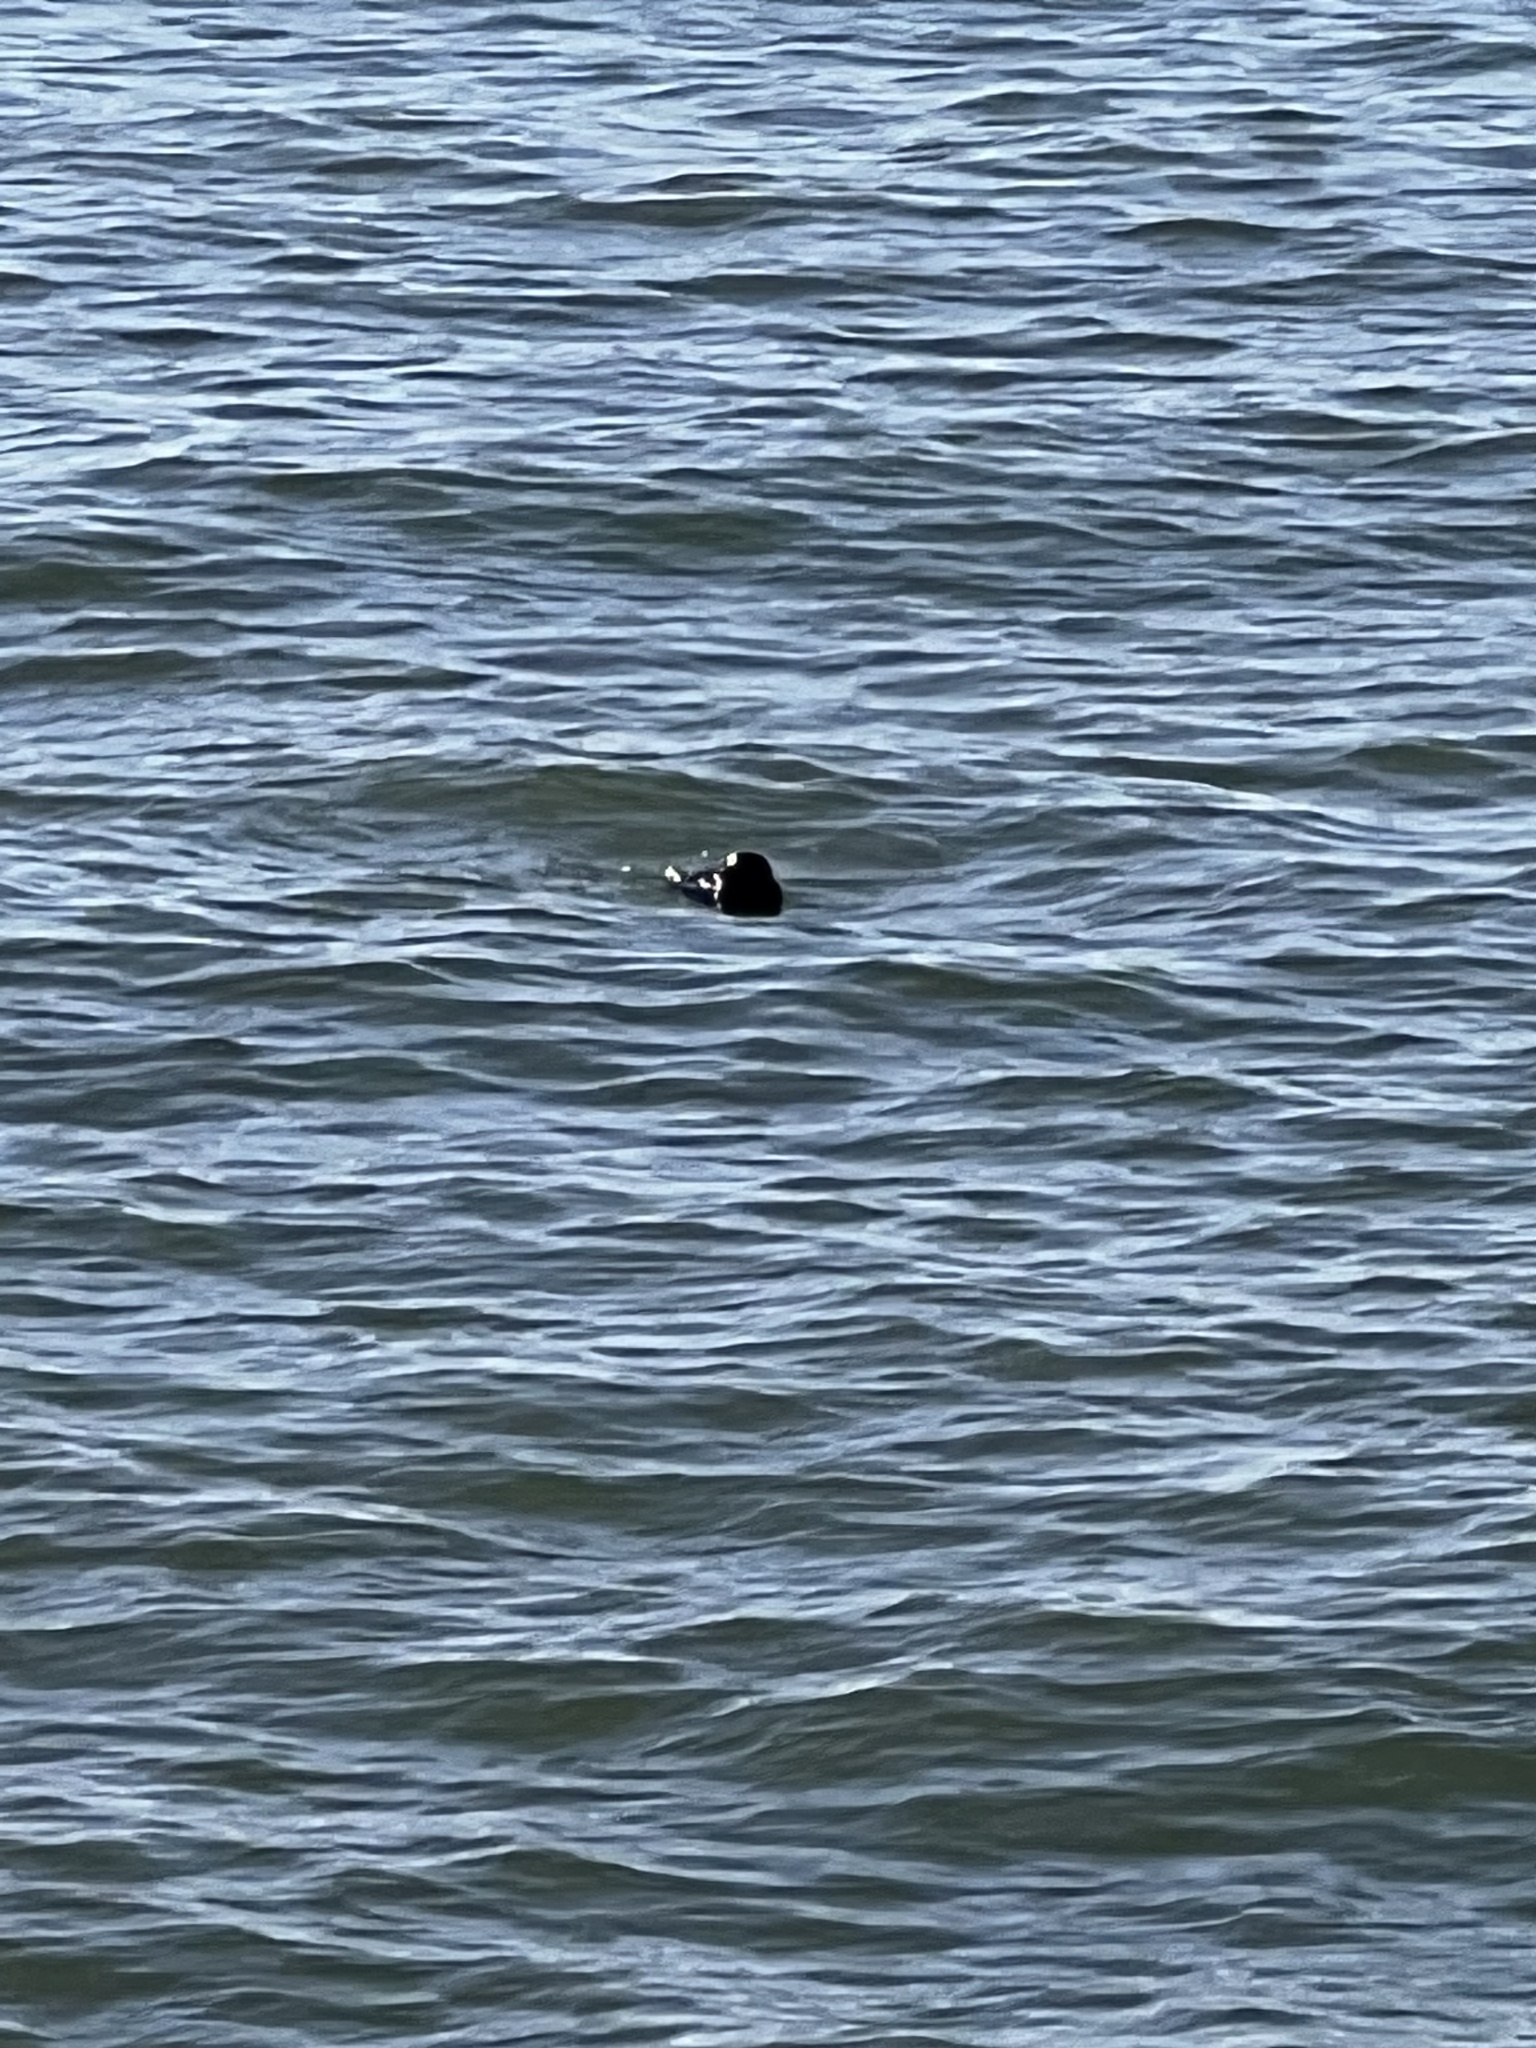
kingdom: Animalia
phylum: Chordata
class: Mammalia
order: Carnivora
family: Mustelidae
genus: Enhydra
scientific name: Enhydra lutris
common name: Sea otter
